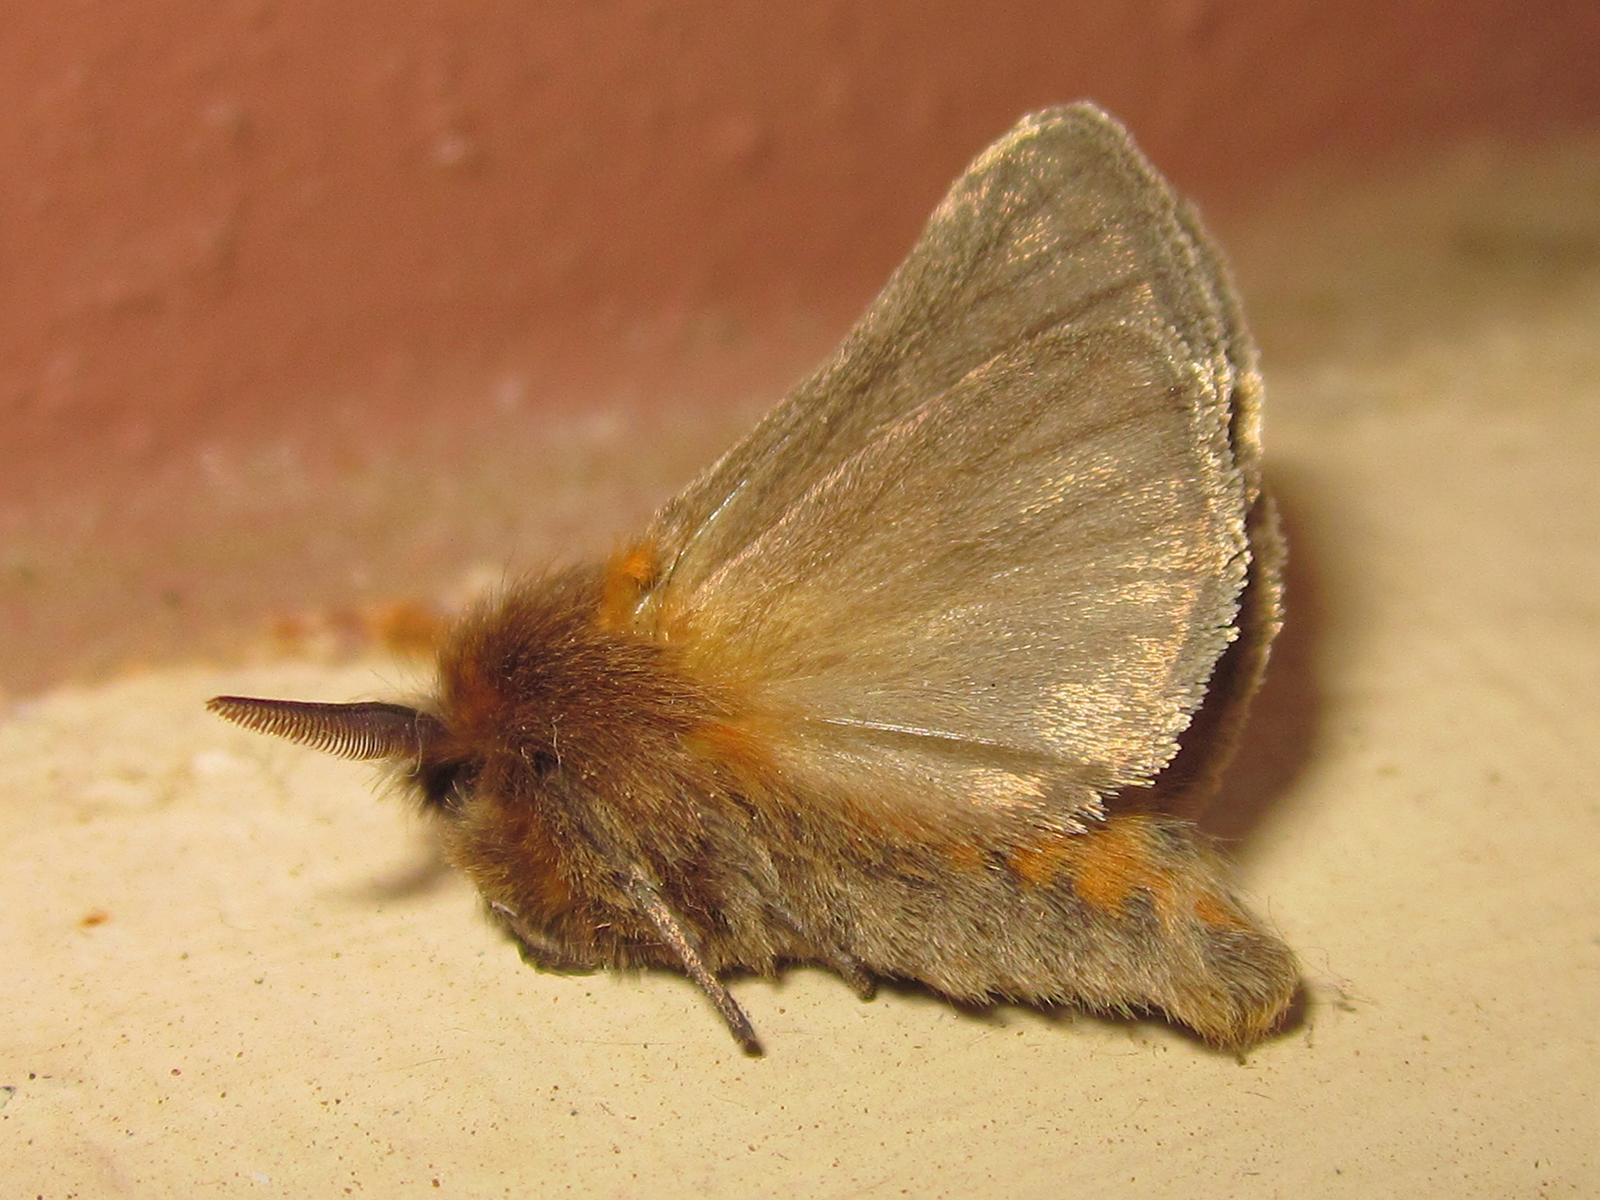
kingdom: Animalia
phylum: Arthropoda
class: Insecta
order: Lepidoptera
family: Erebidae
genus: Chilesia
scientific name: Chilesia
